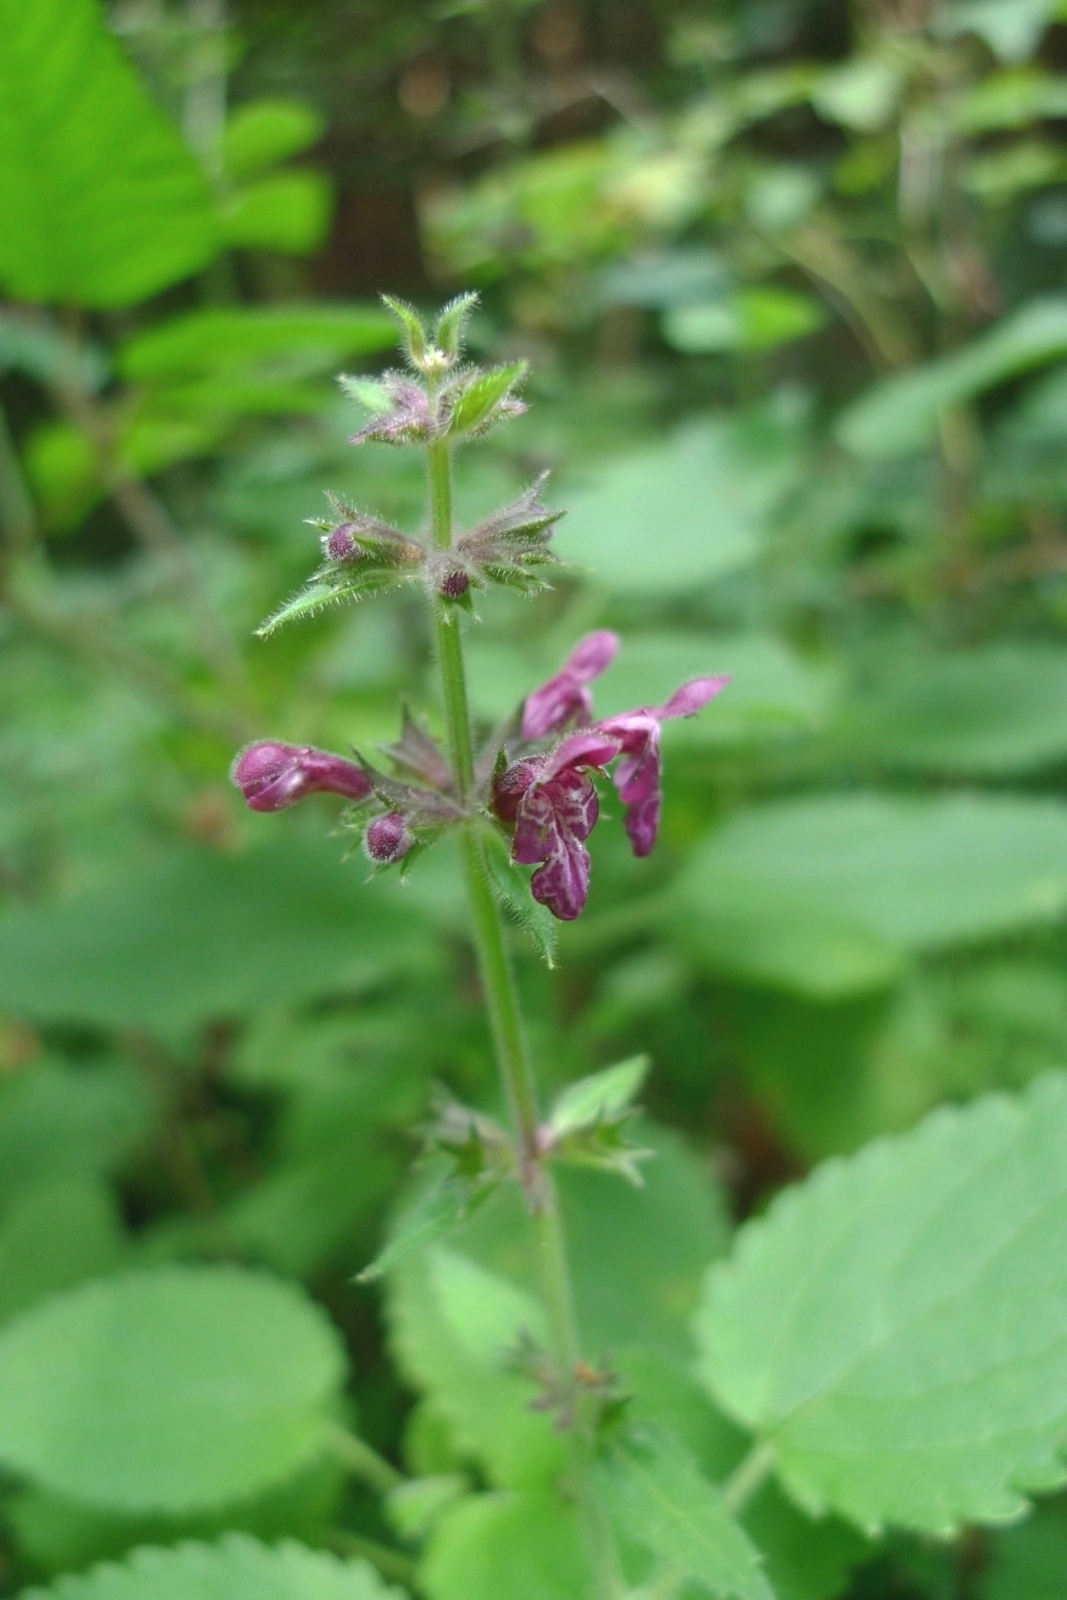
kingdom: Plantae
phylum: Tracheophyta
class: Magnoliopsida
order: Lamiales
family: Lamiaceae
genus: Stachys
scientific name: Stachys sylvatica
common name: Hedge woundwort
